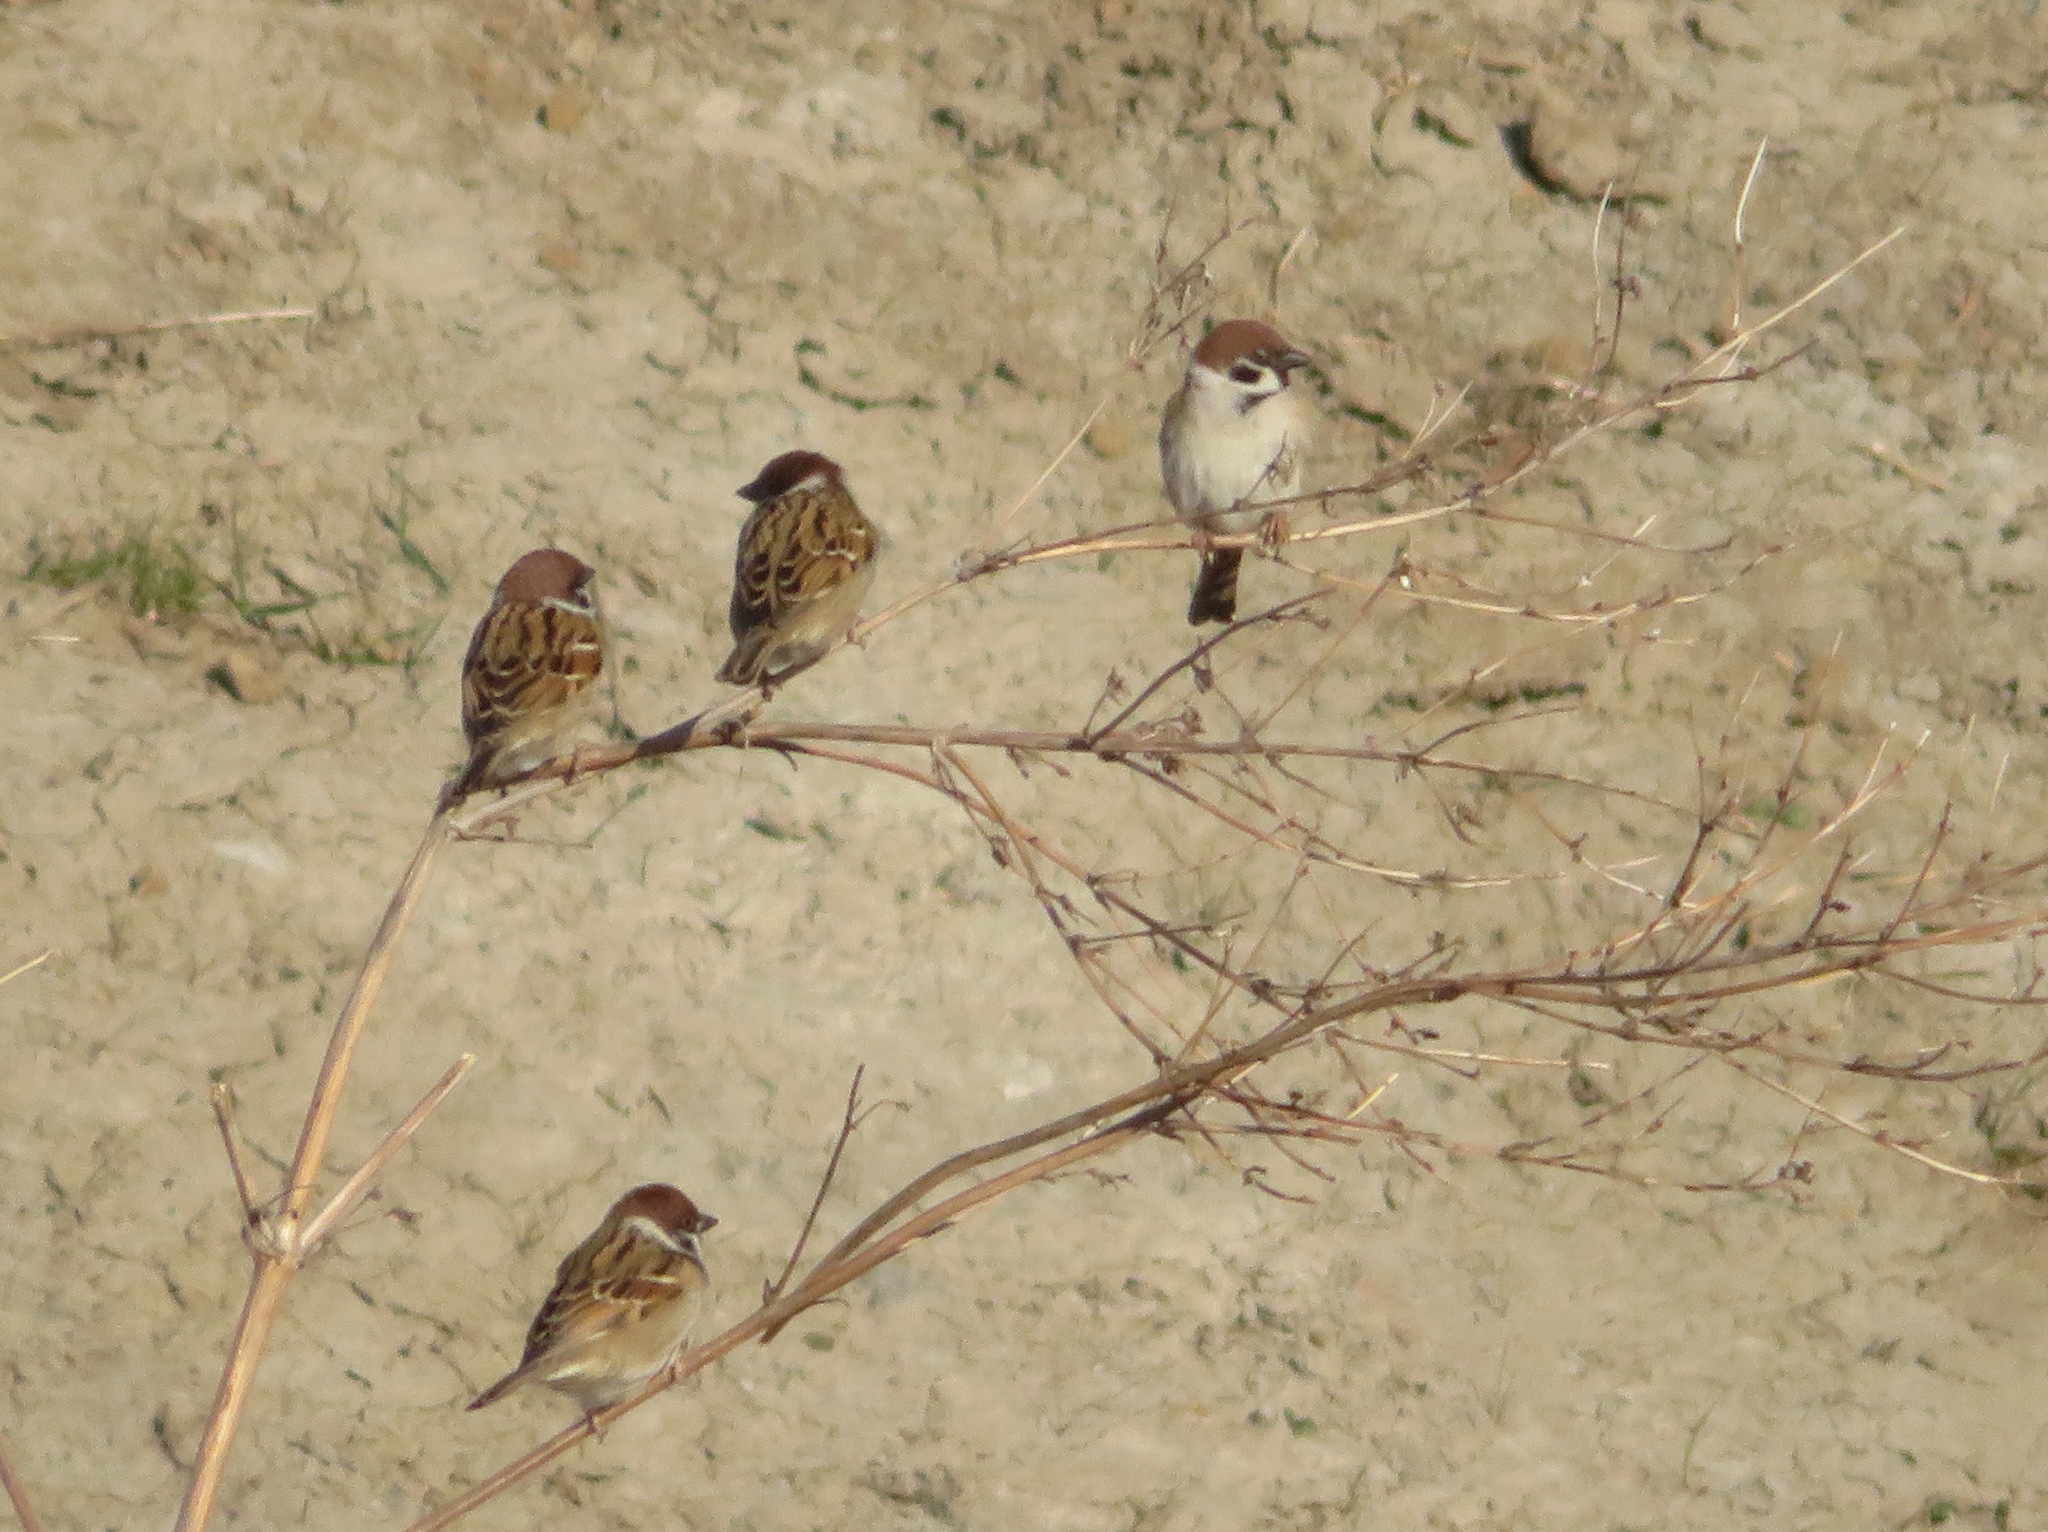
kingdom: Animalia
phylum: Chordata
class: Aves
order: Passeriformes
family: Passeridae
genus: Passer
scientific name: Passer montanus
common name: Eurasian tree sparrow
